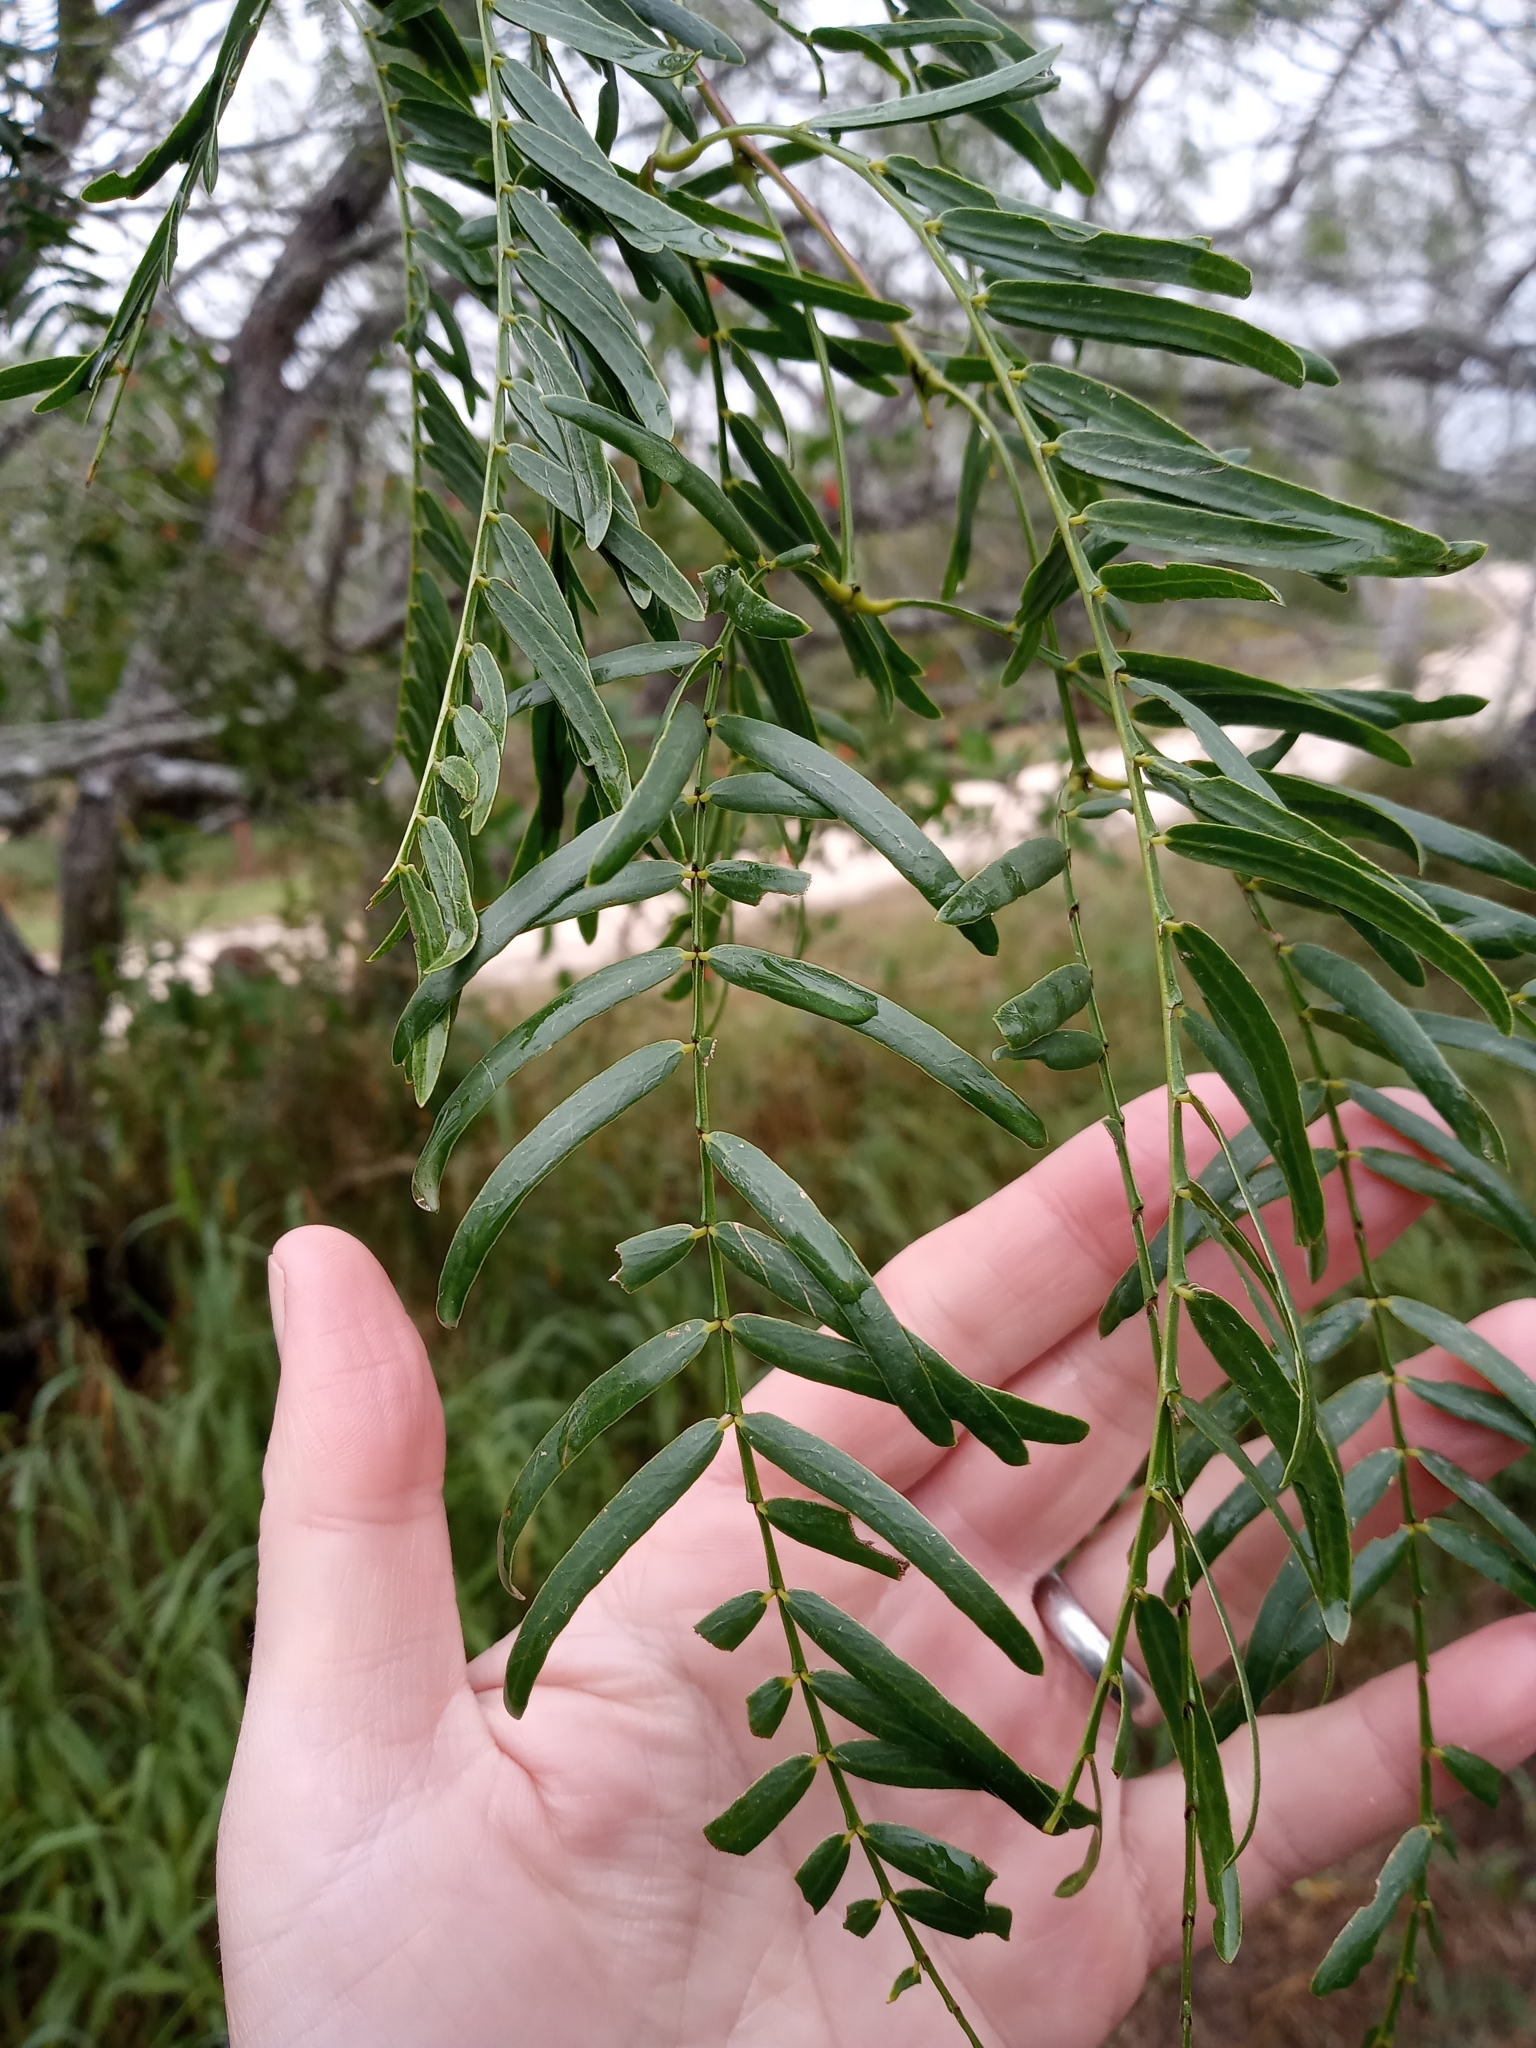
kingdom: Plantae
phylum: Tracheophyta
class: Magnoliopsida
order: Fabales
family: Fabaceae
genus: Prosopis
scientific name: Prosopis glandulosa
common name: Honey mesquite
